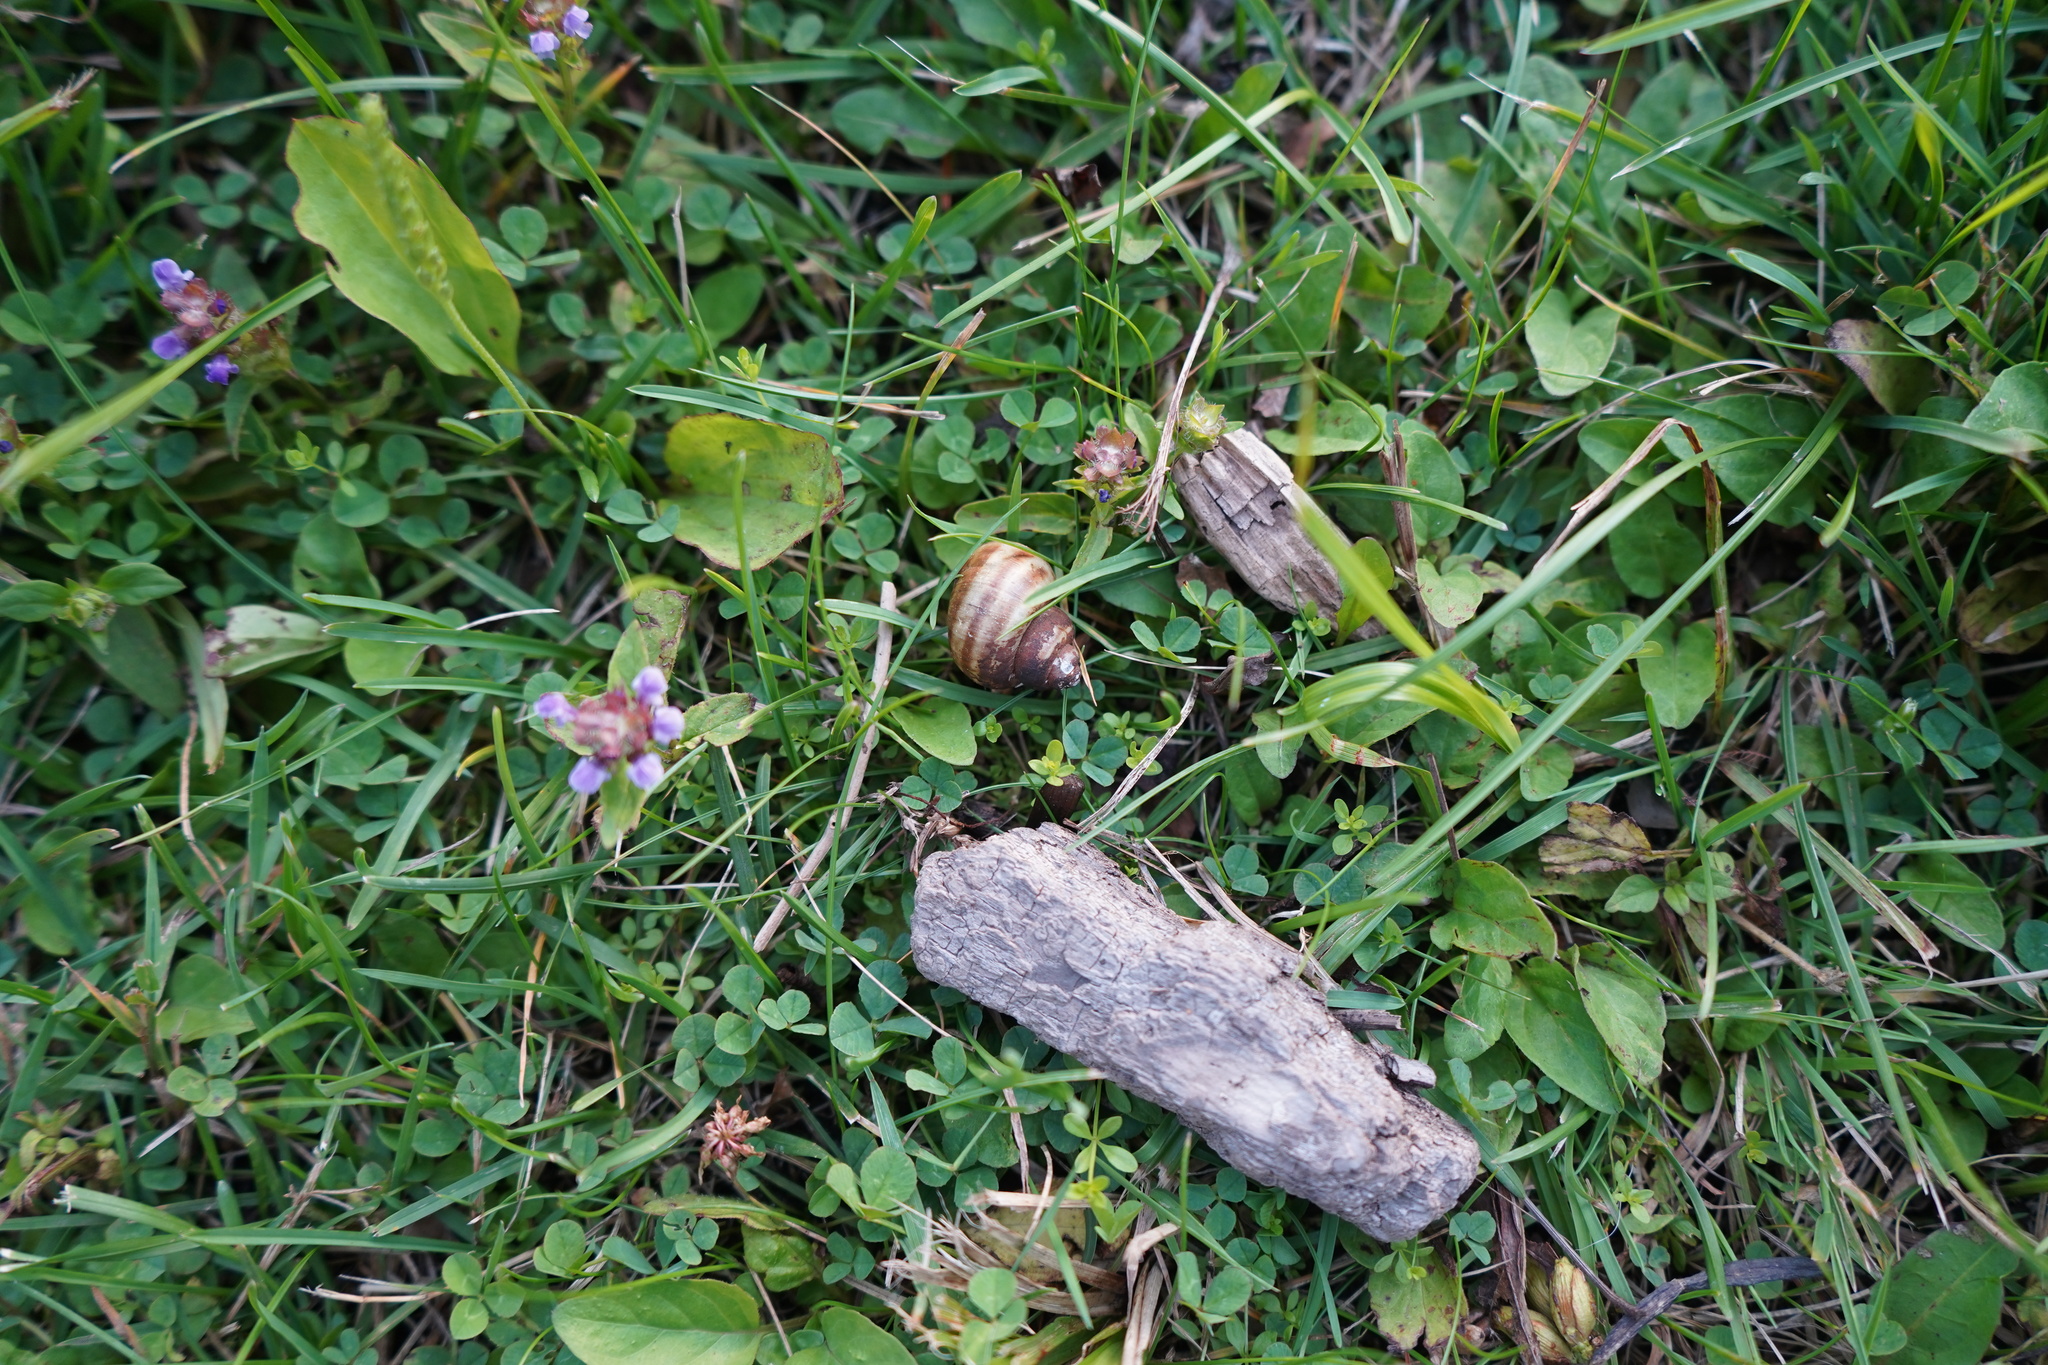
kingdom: Animalia
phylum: Mollusca
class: Gastropoda
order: Architaenioglossa
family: Viviparidae
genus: Callinina
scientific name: Callinina georgiana
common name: Banded mystery snail
